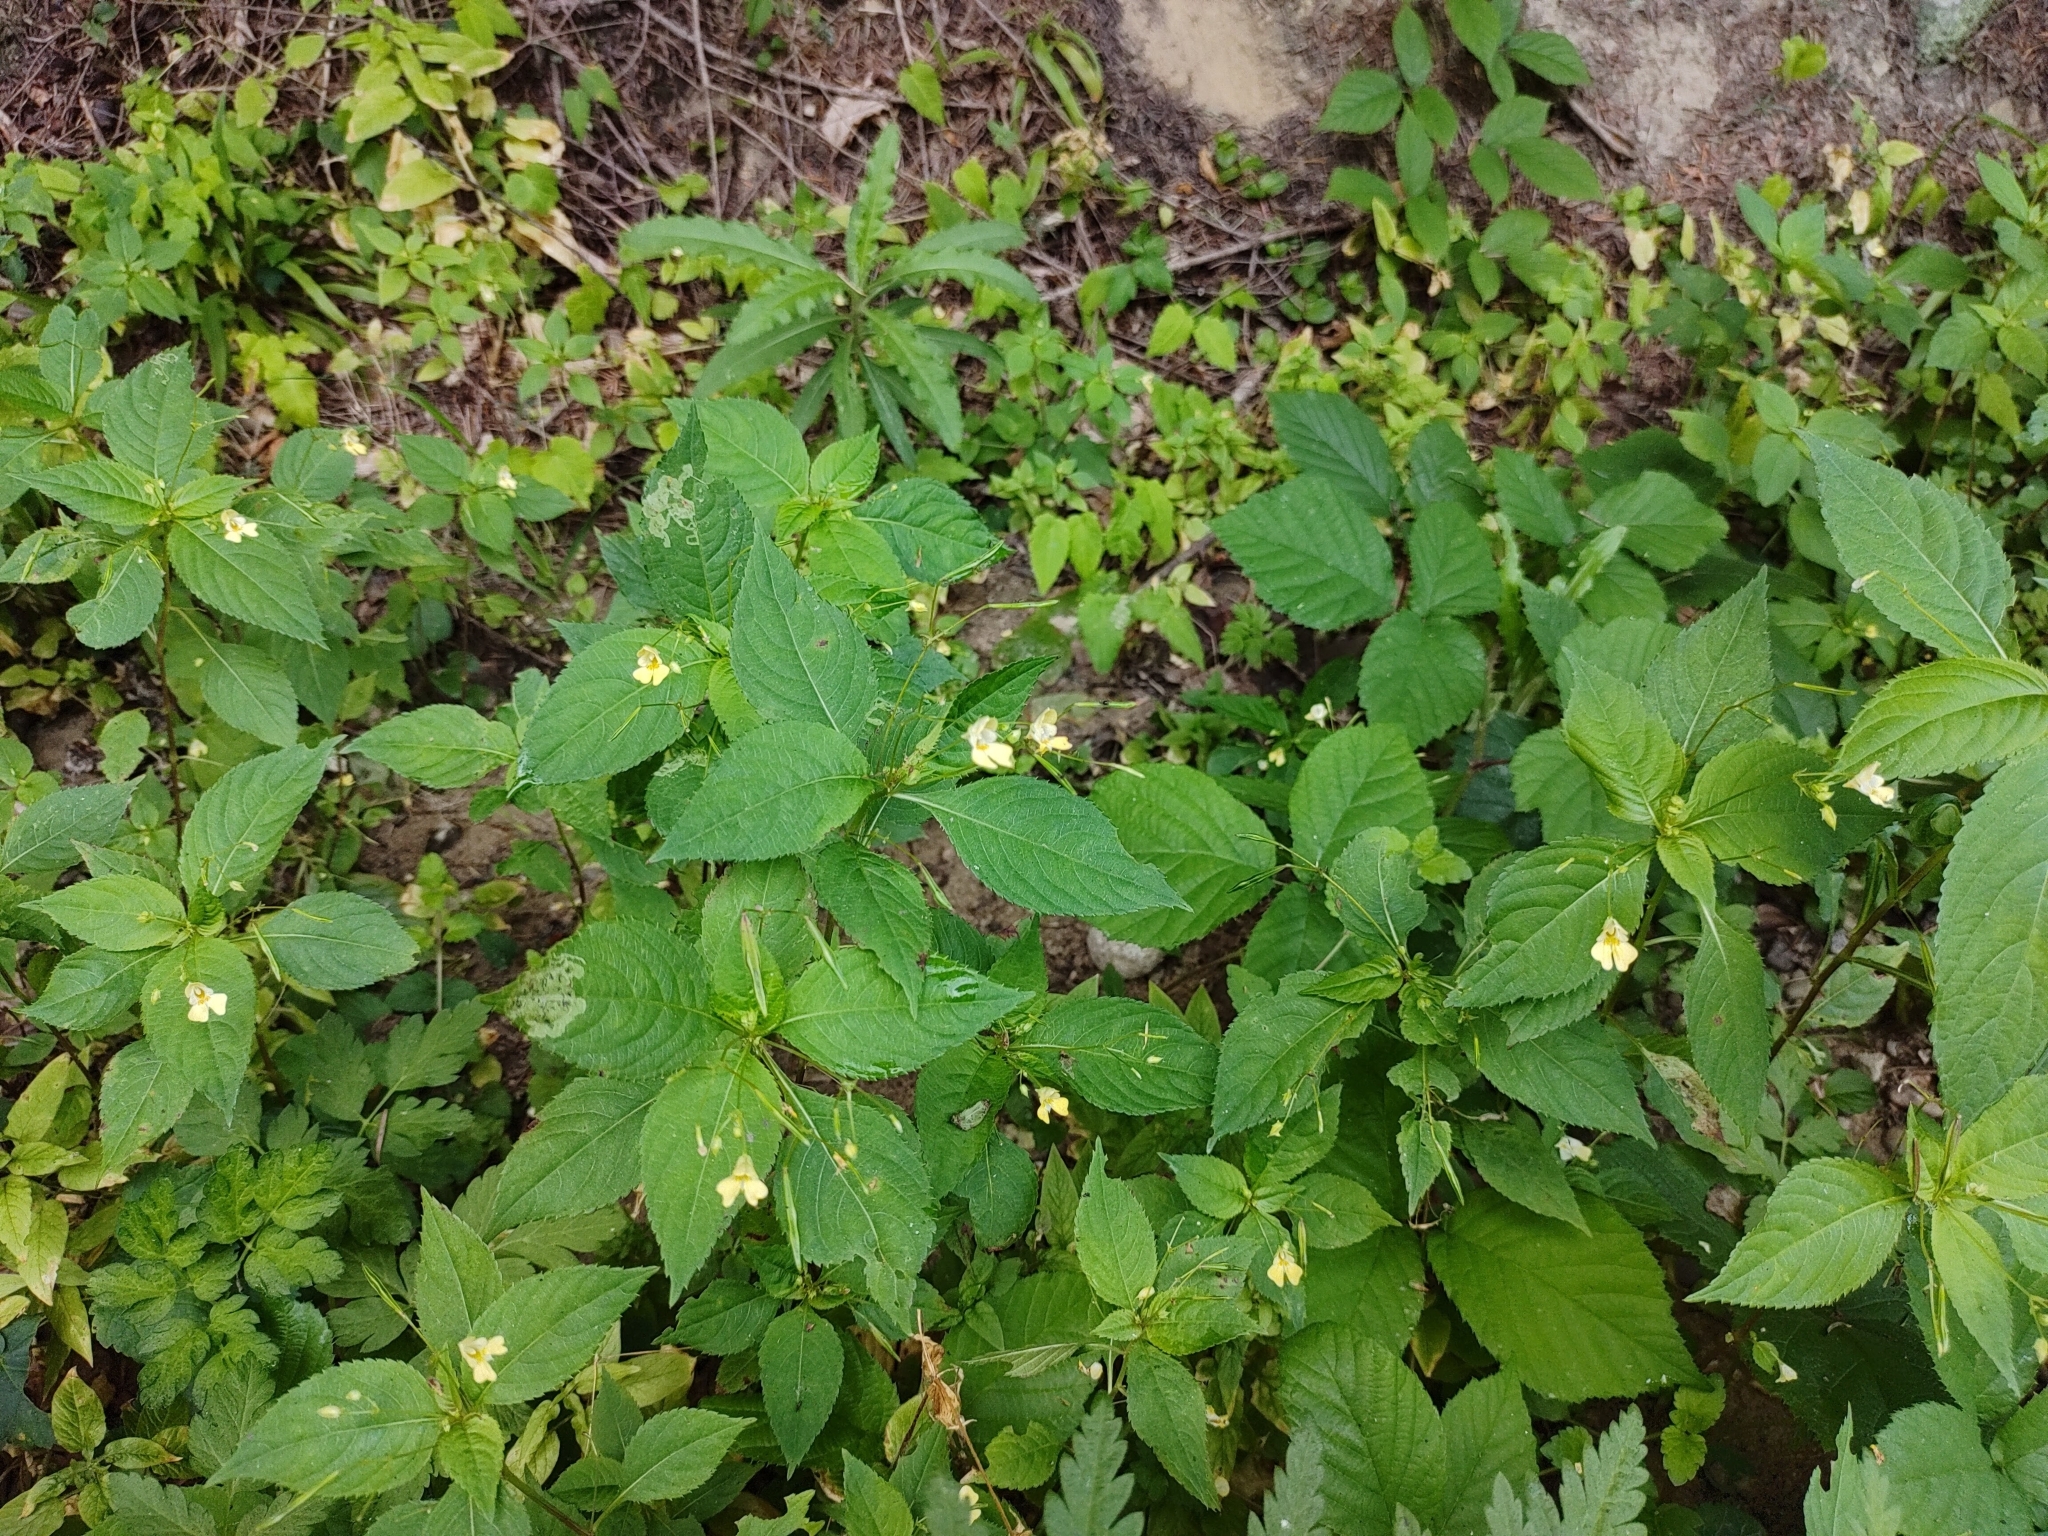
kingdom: Plantae
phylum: Tracheophyta
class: Magnoliopsida
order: Ericales
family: Balsaminaceae
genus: Impatiens
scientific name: Impatiens parviflora
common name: Small balsam
